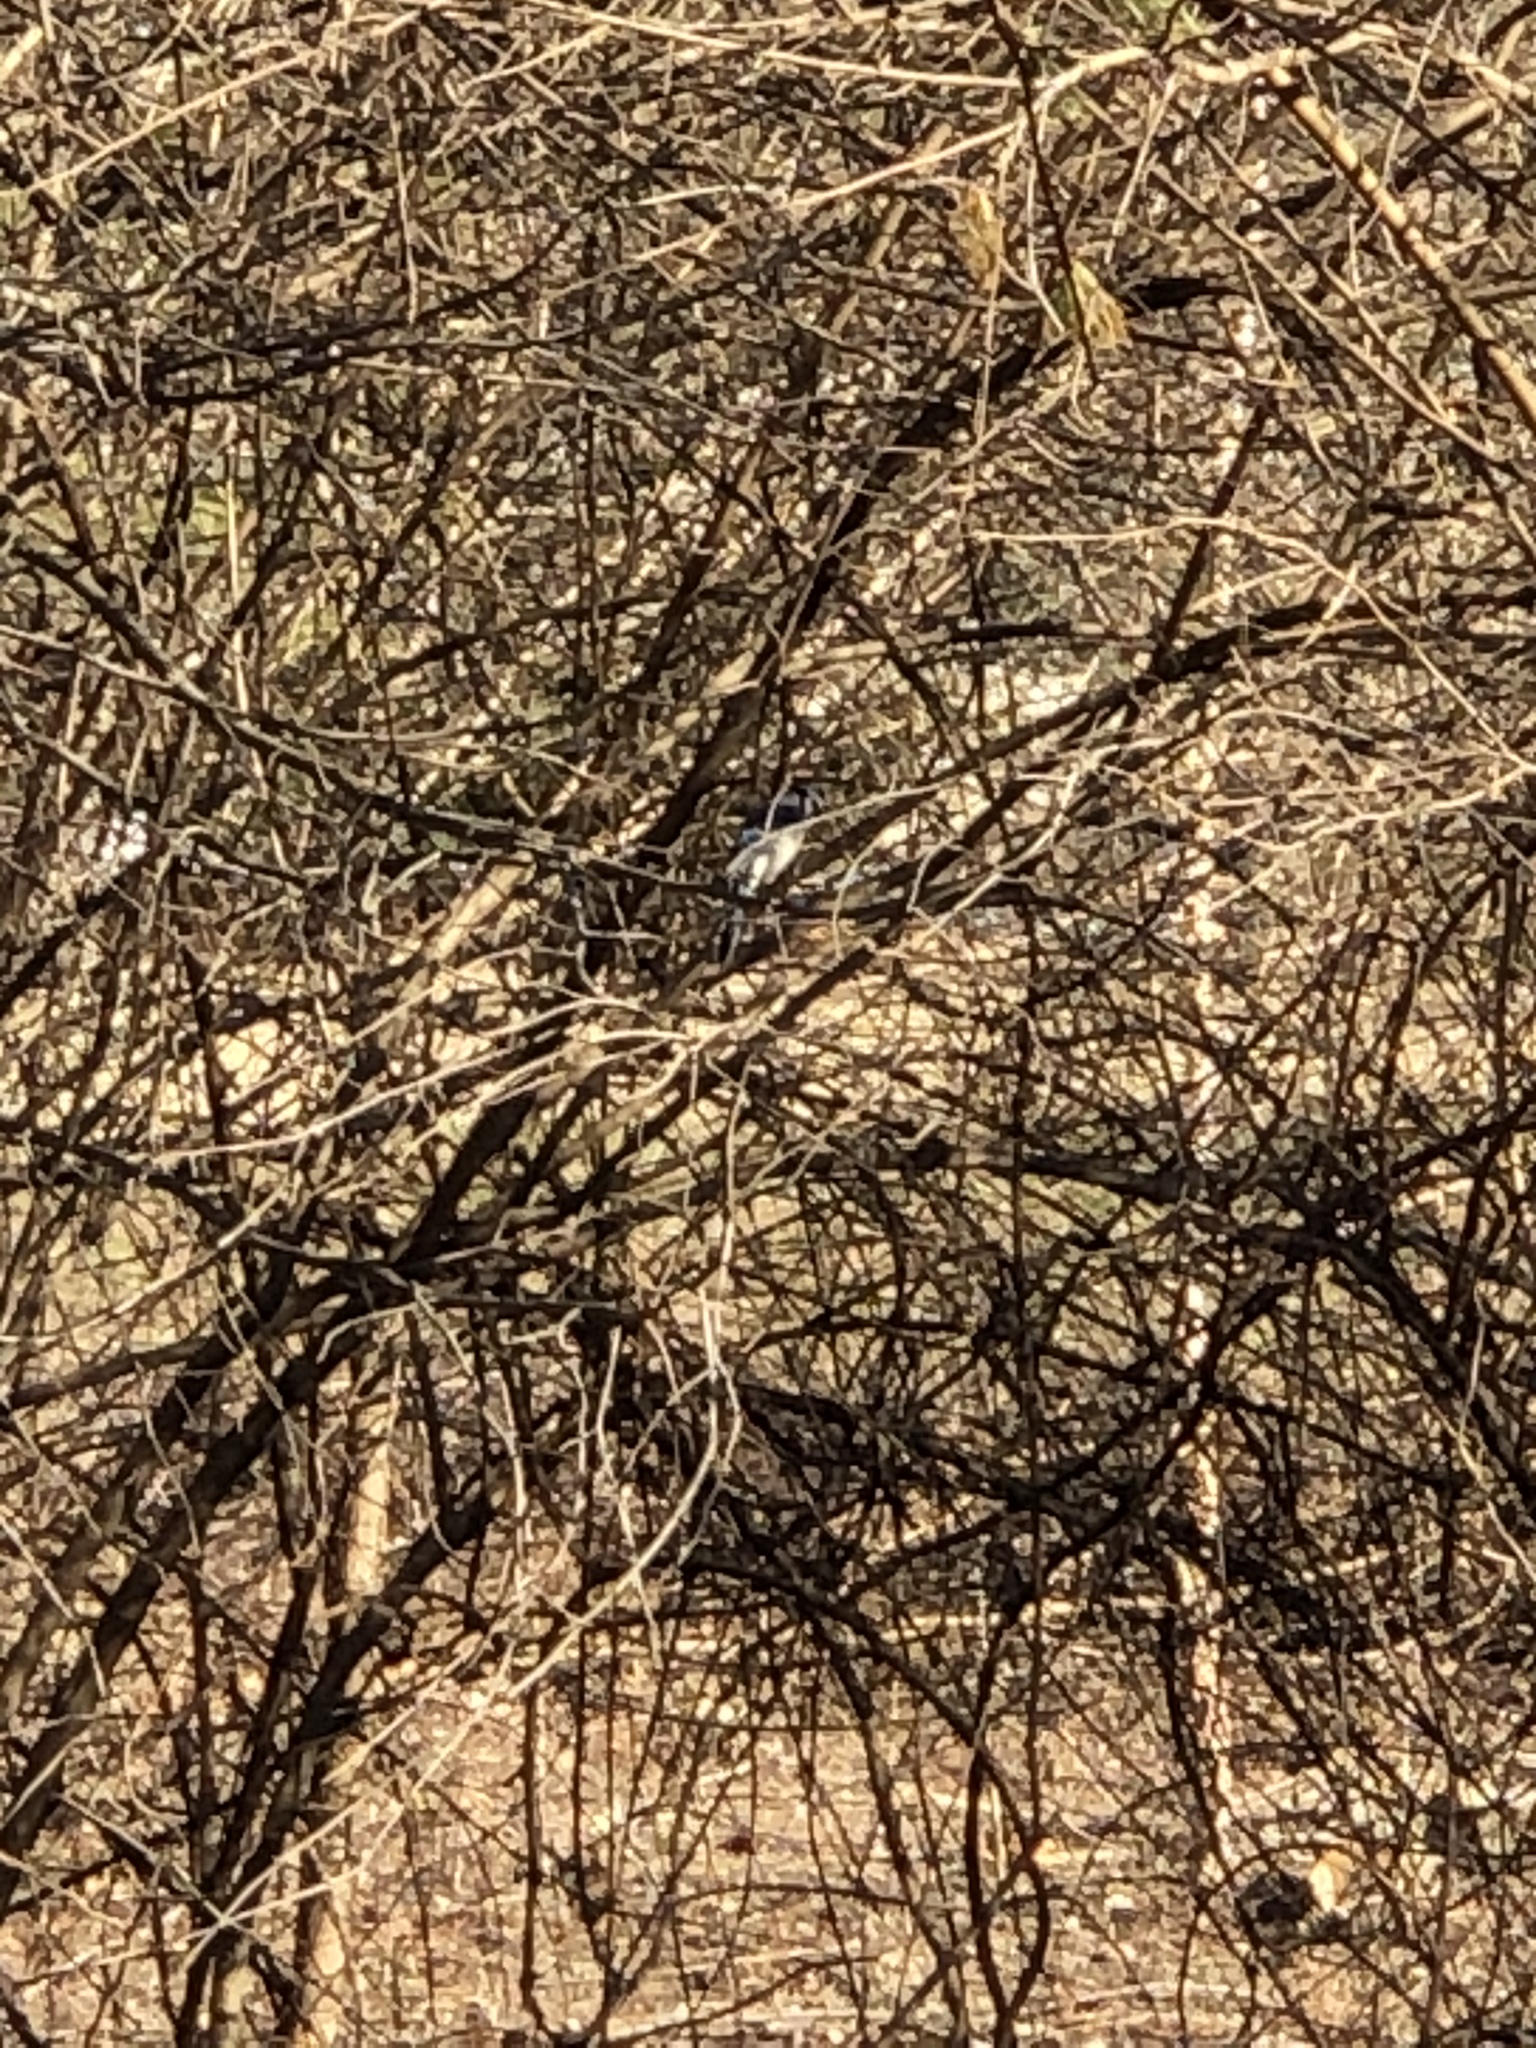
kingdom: Animalia
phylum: Chordata
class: Aves
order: Passeriformes
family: Corvidae
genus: Cyanocitta
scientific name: Cyanocitta cristata
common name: Blue jay
